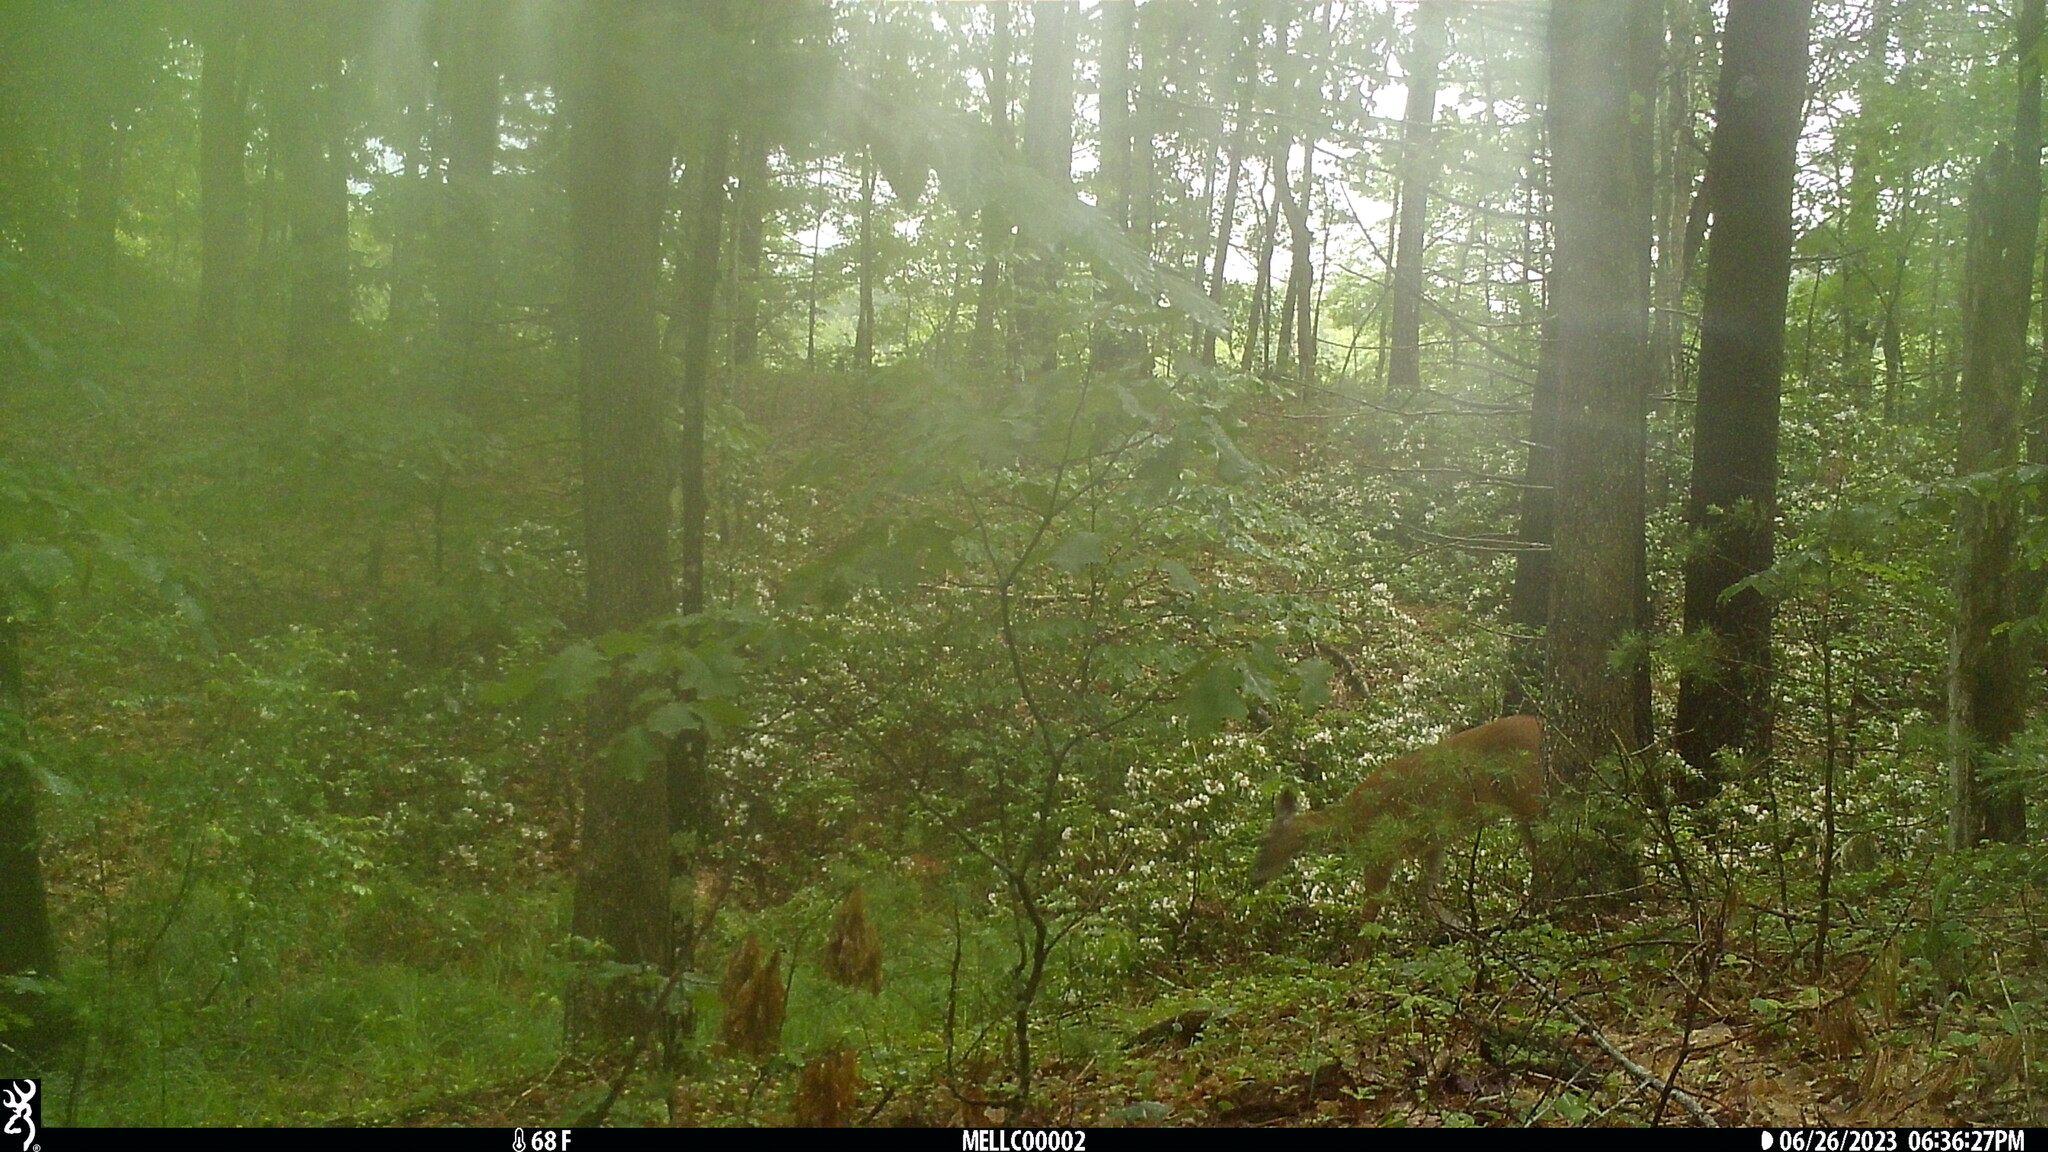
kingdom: Animalia
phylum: Chordata
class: Mammalia
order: Artiodactyla
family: Cervidae
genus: Odocoileus
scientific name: Odocoileus virginianus
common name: White-tailed deer
